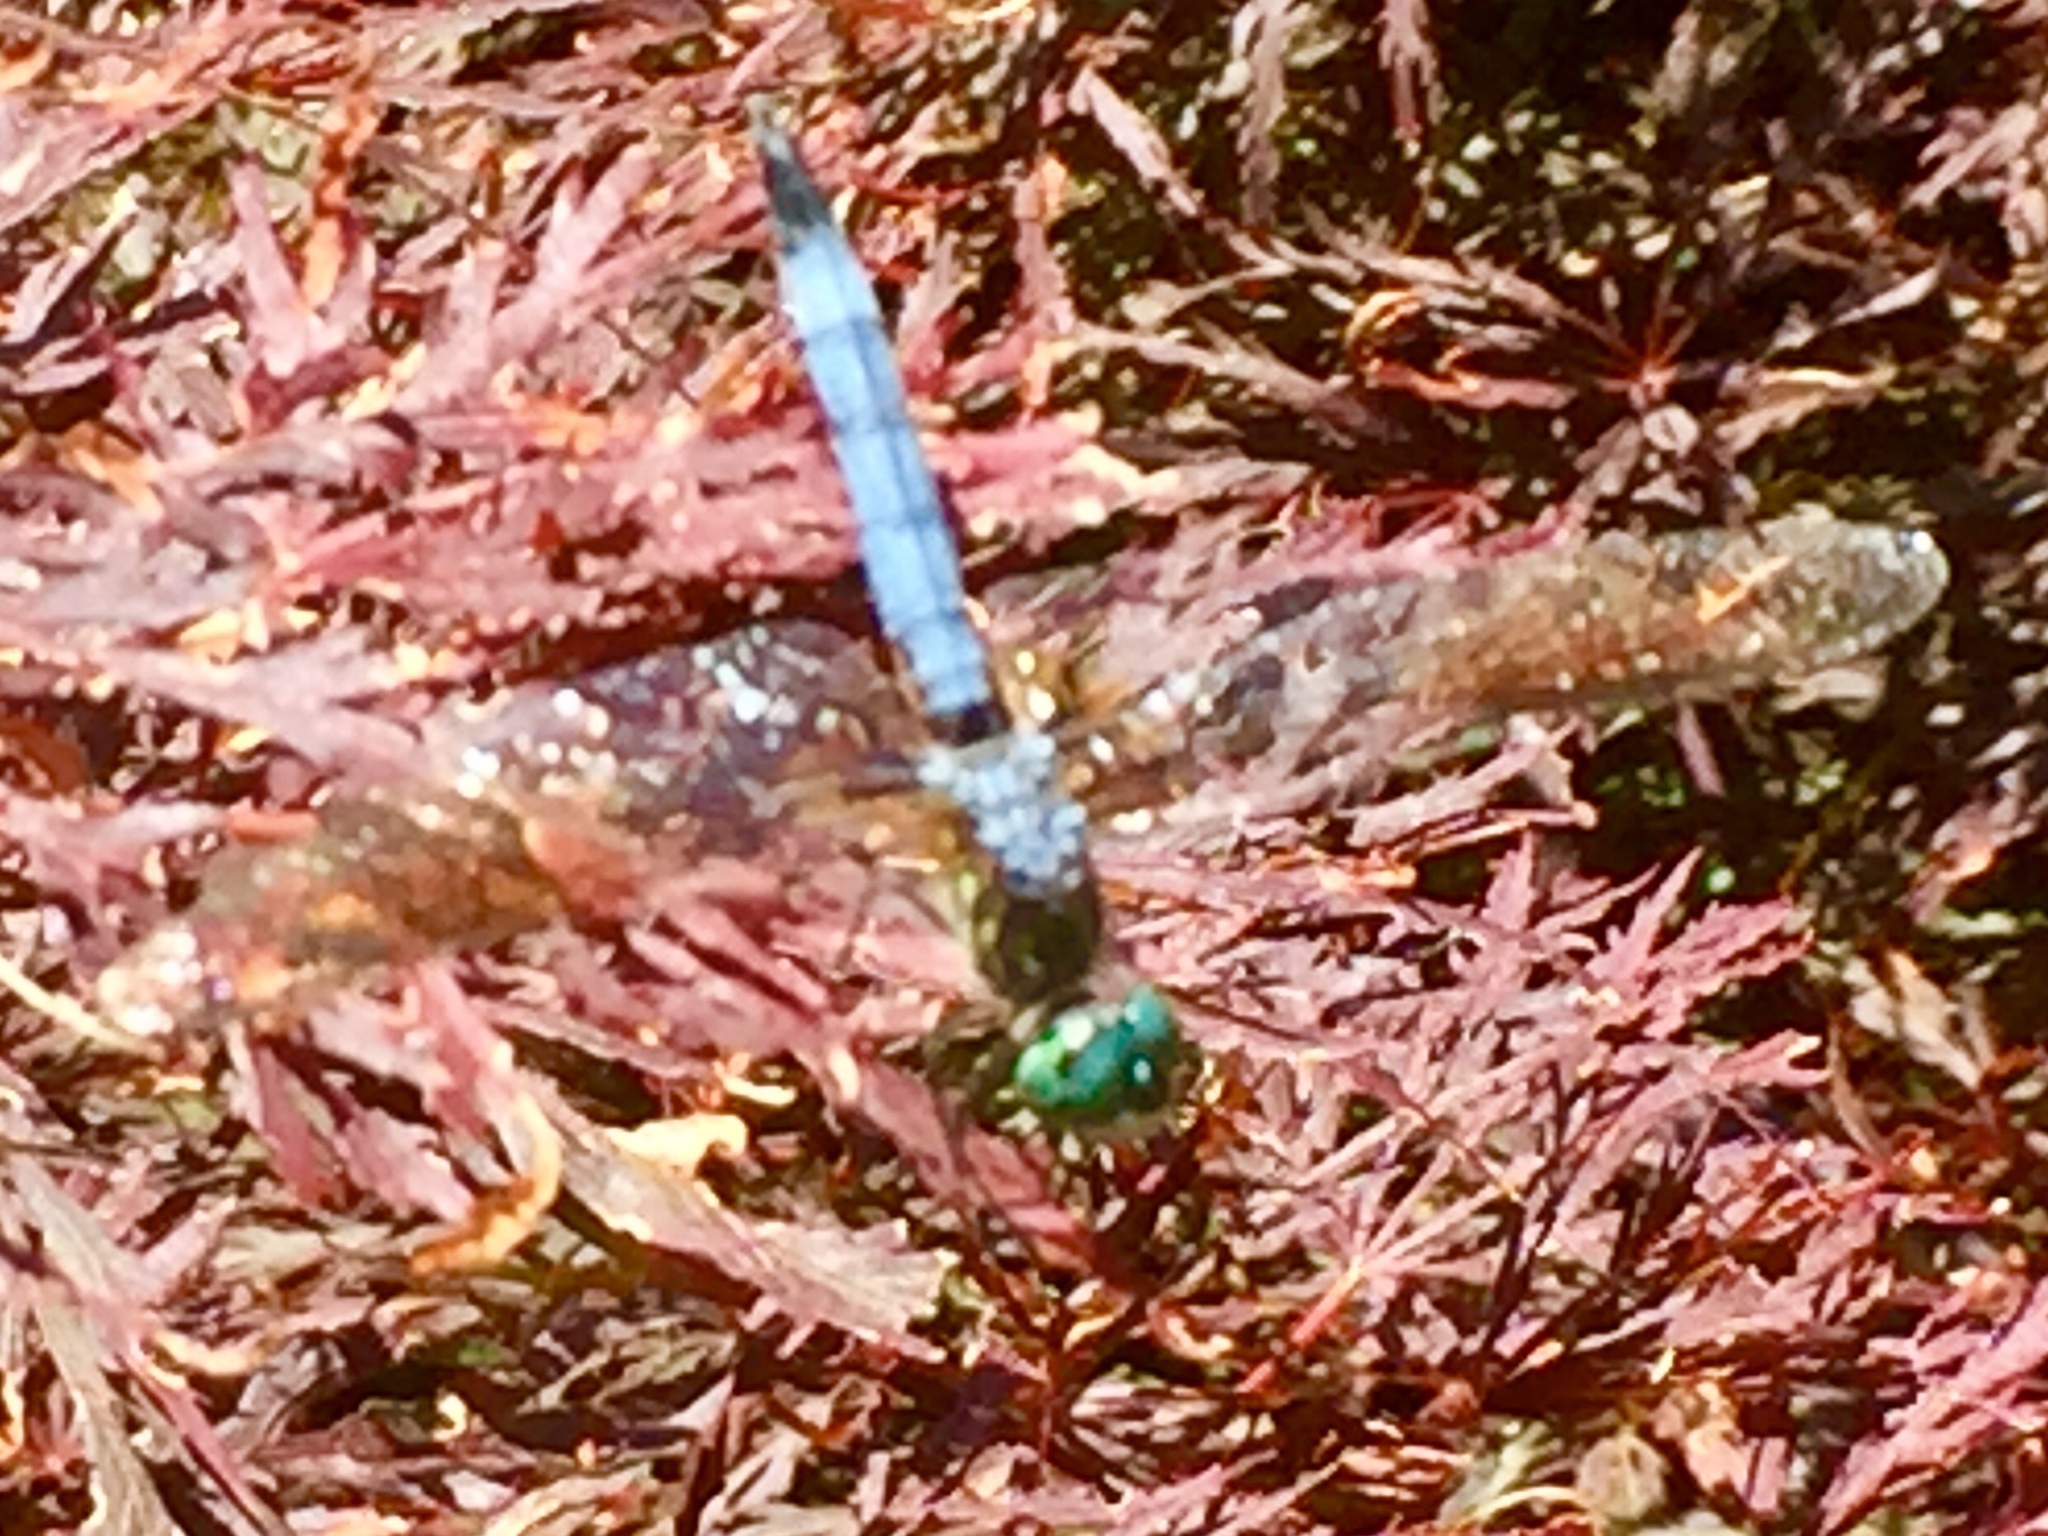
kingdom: Animalia
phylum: Arthropoda
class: Insecta
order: Odonata
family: Libellulidae
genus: Pachydiplax
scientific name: Pachydiplax longipennis
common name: Blue dasher
